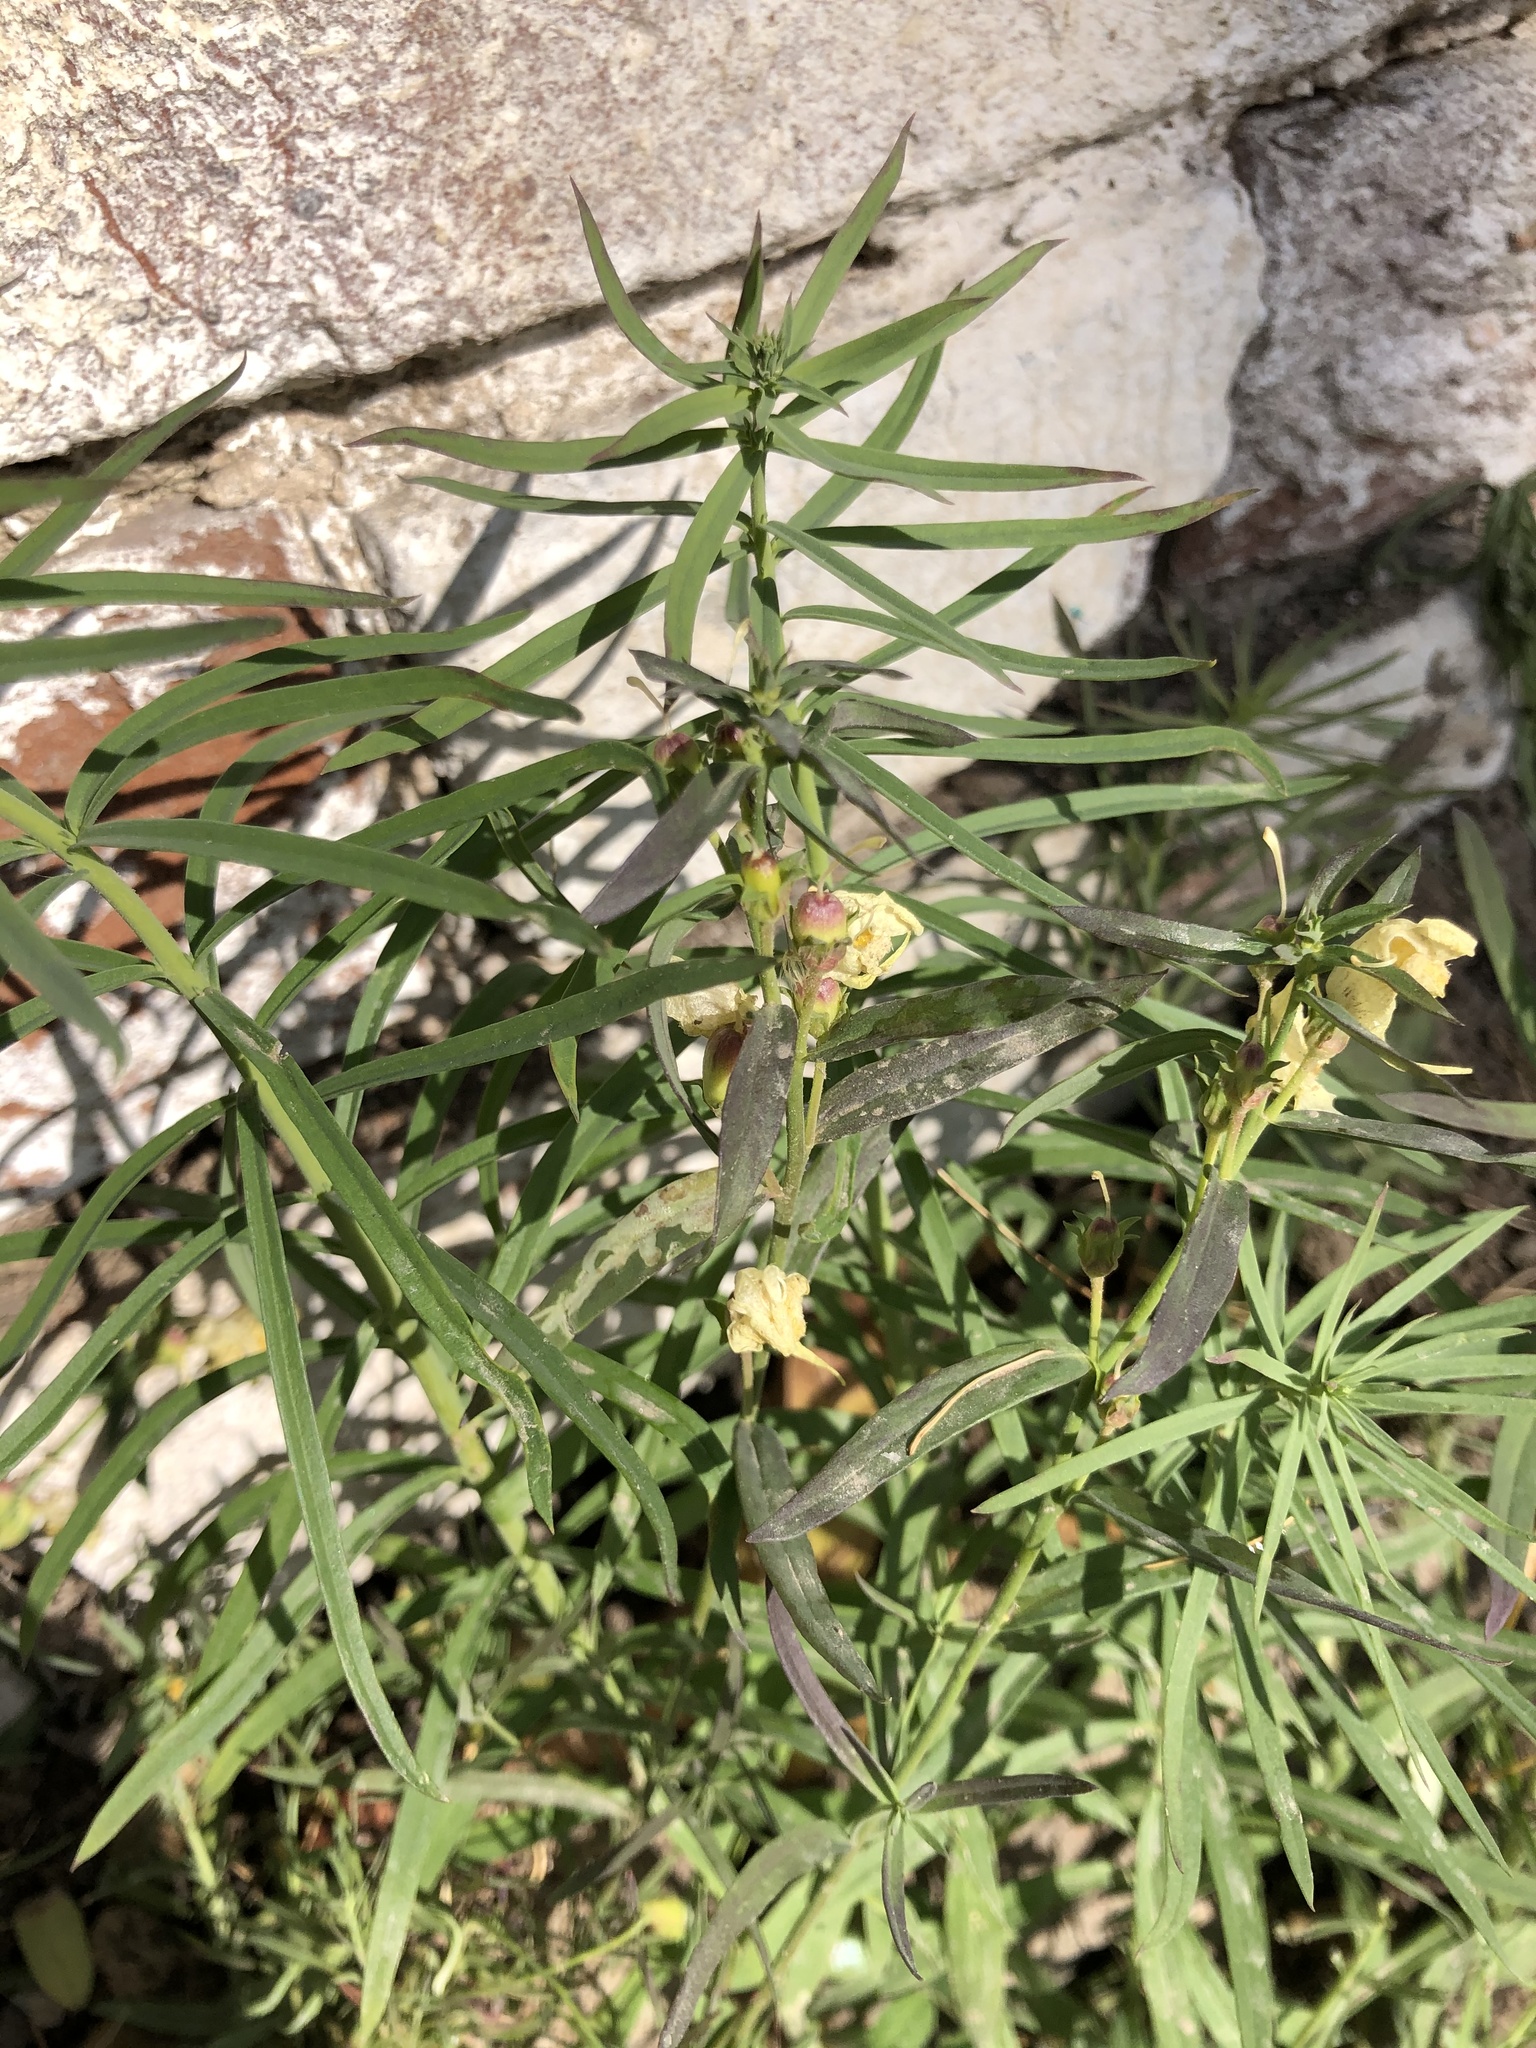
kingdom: Plantae
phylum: Tracheophyta
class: Magnoliopsida
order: Lamiales
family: Plantaginaceae
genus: Linaria
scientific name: Linaria vulgaris
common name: Butter and eggs
